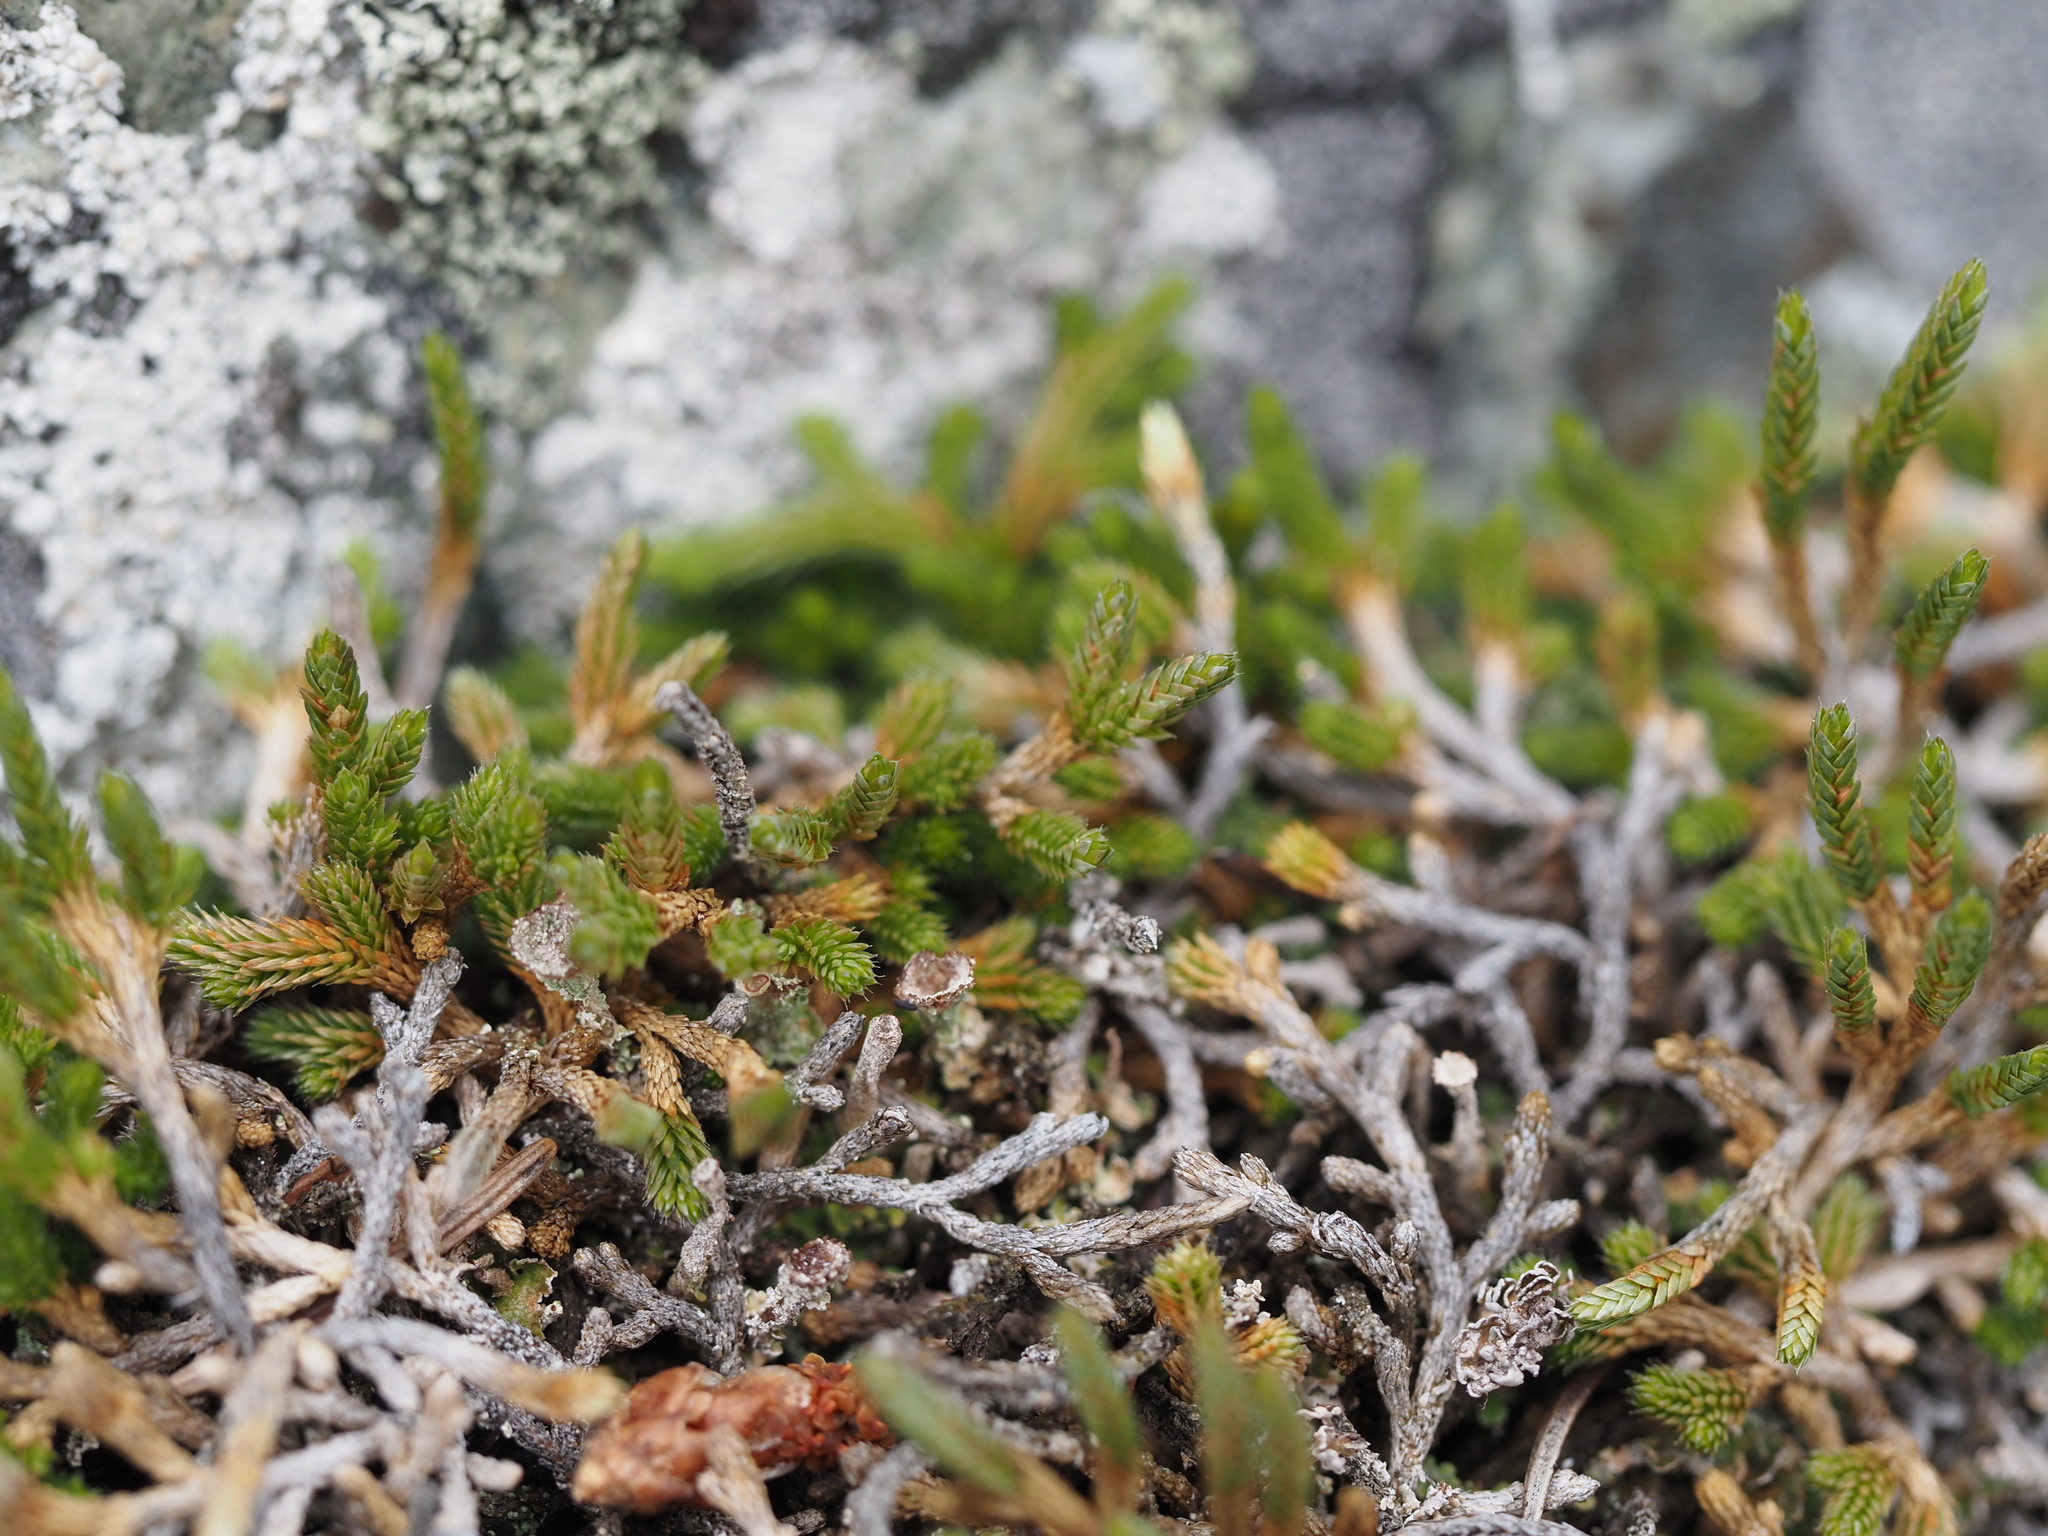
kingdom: Plantae
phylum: Tracheophyta
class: Lycopodiopsida
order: Selaginellales
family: Selaginellaceae
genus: Selaginella
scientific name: Selaginella wallacei
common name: Wallace's selaginella
